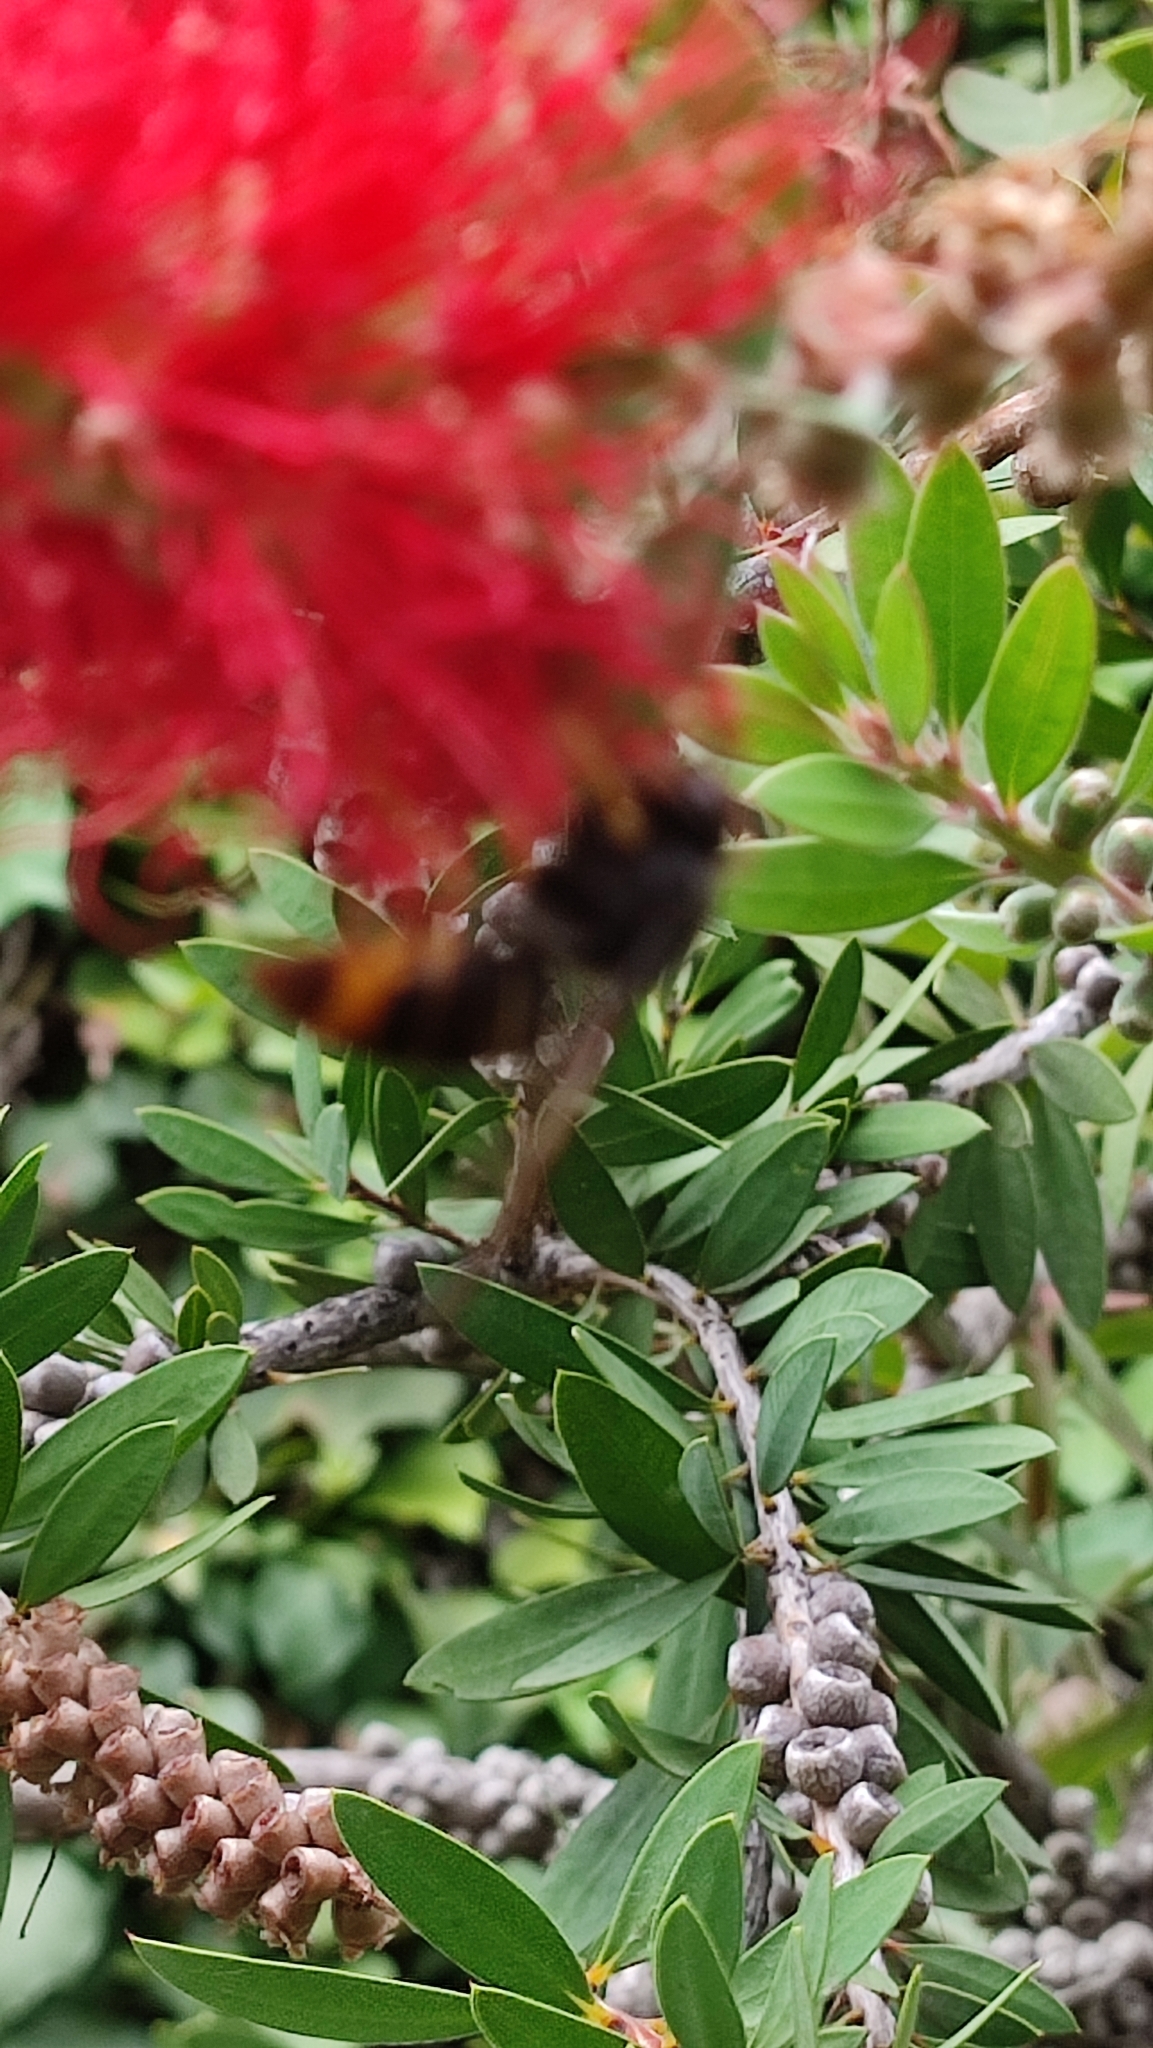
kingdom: Animalia
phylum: Arthropoda
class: Insecta
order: Hymenoptera
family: Vespidae
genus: Vespa
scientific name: Vespa velutina
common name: Asian hornet
